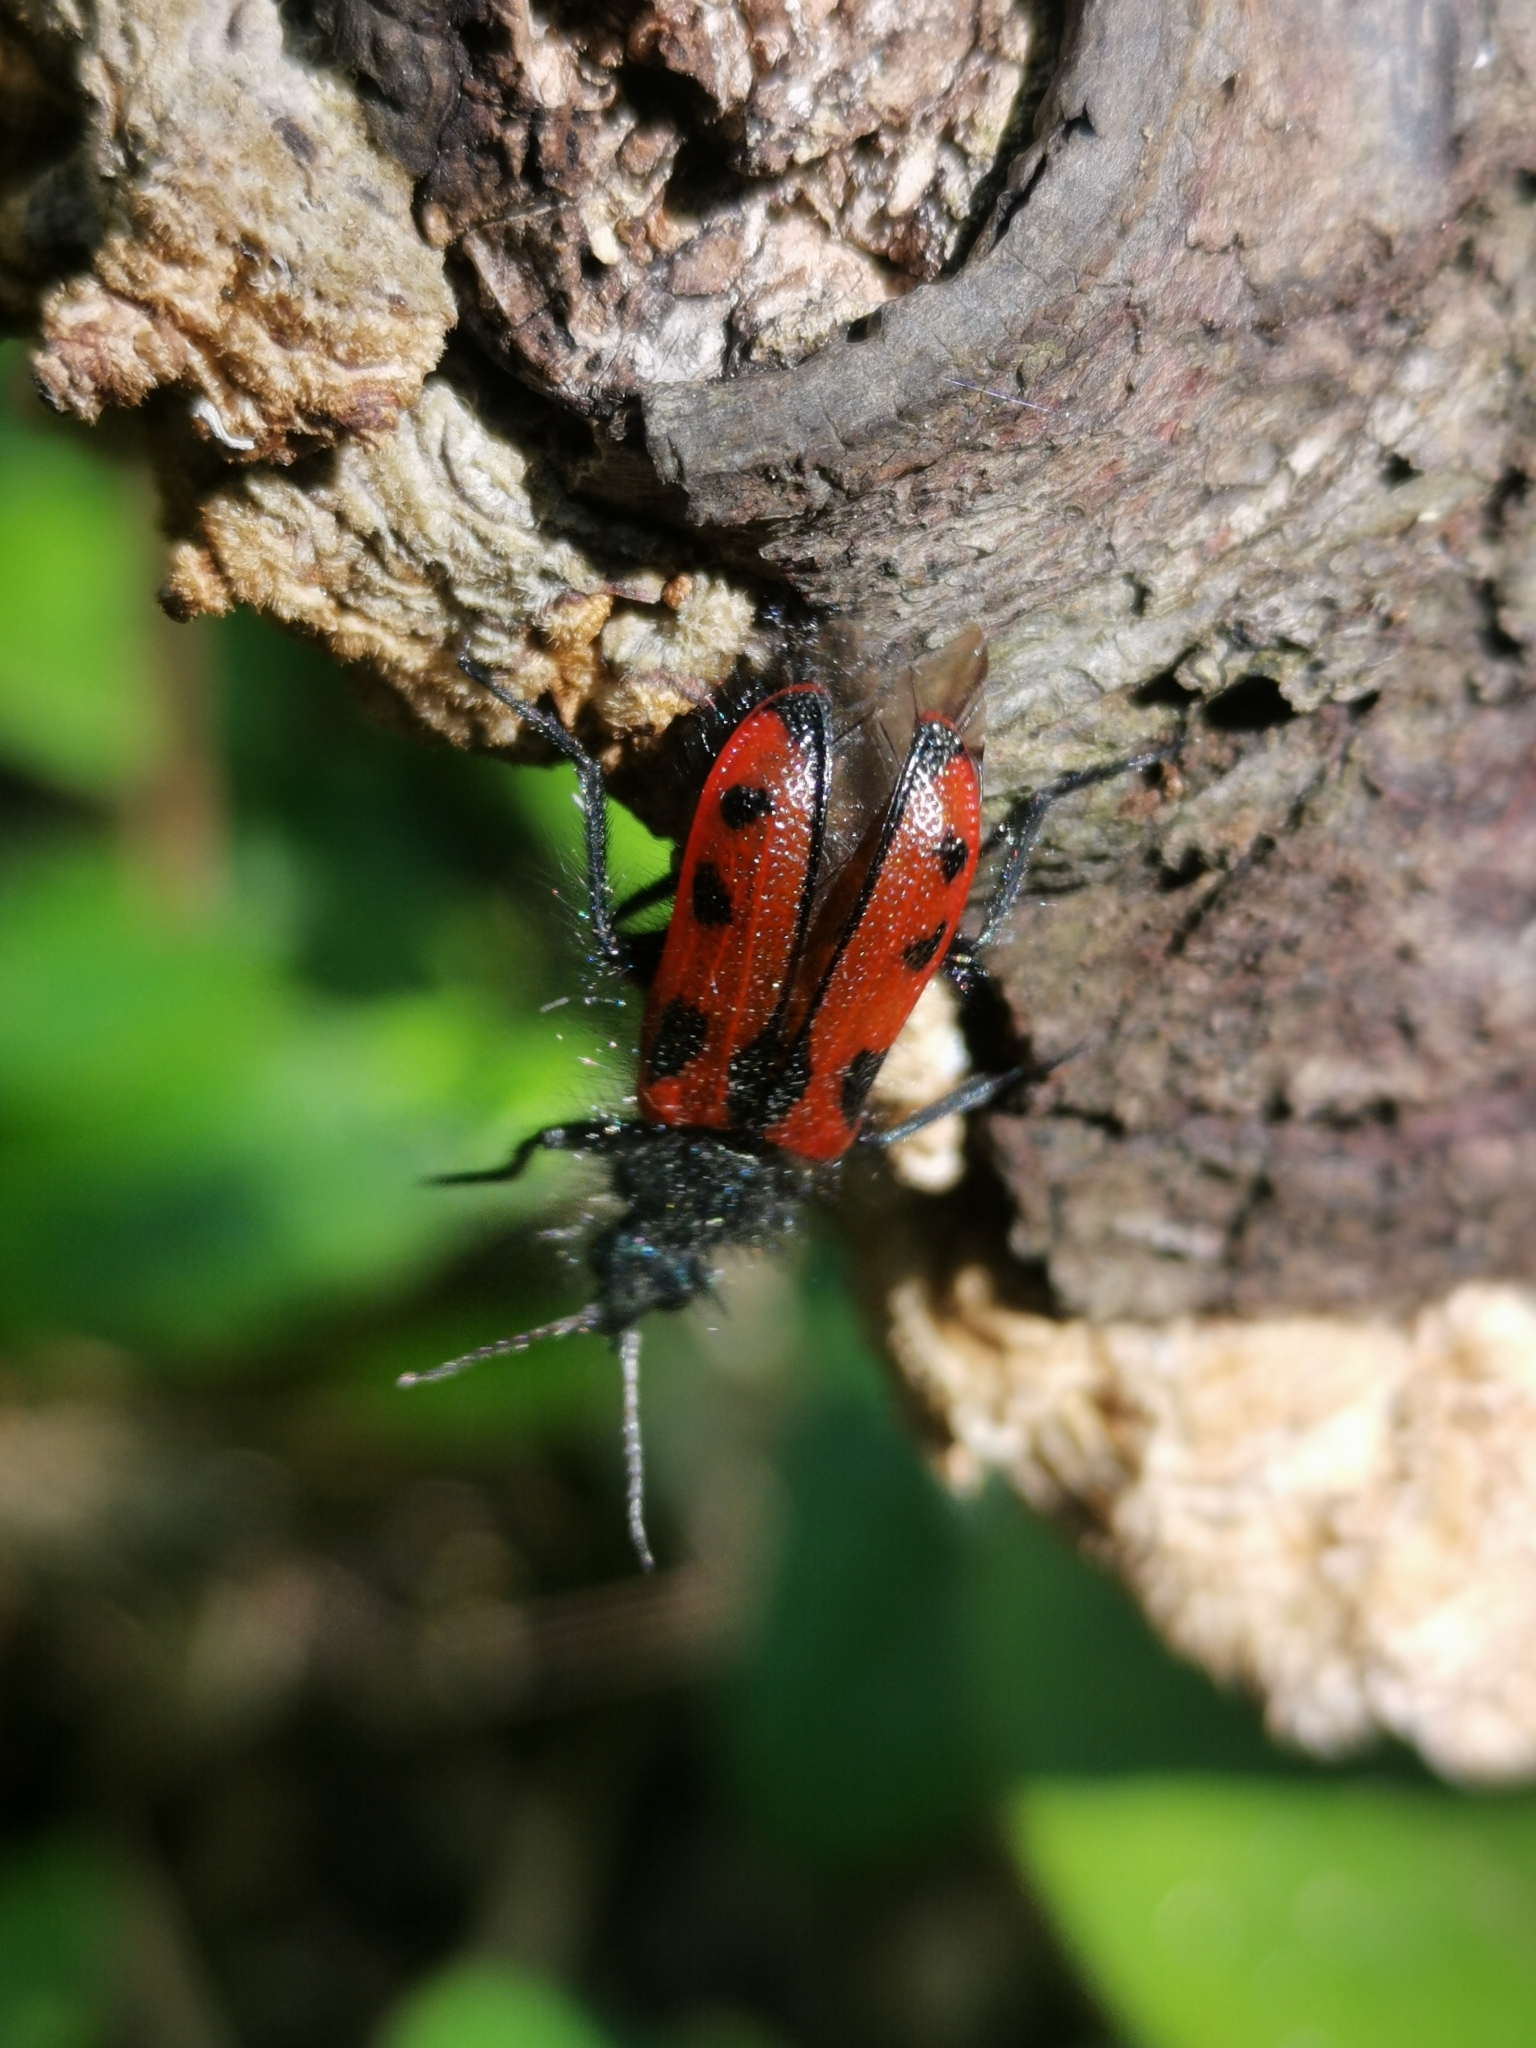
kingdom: Animalia
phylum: Arthropoda
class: Insecta
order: Coleoptera
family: Melyridae
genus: Astylus
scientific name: Astylus
